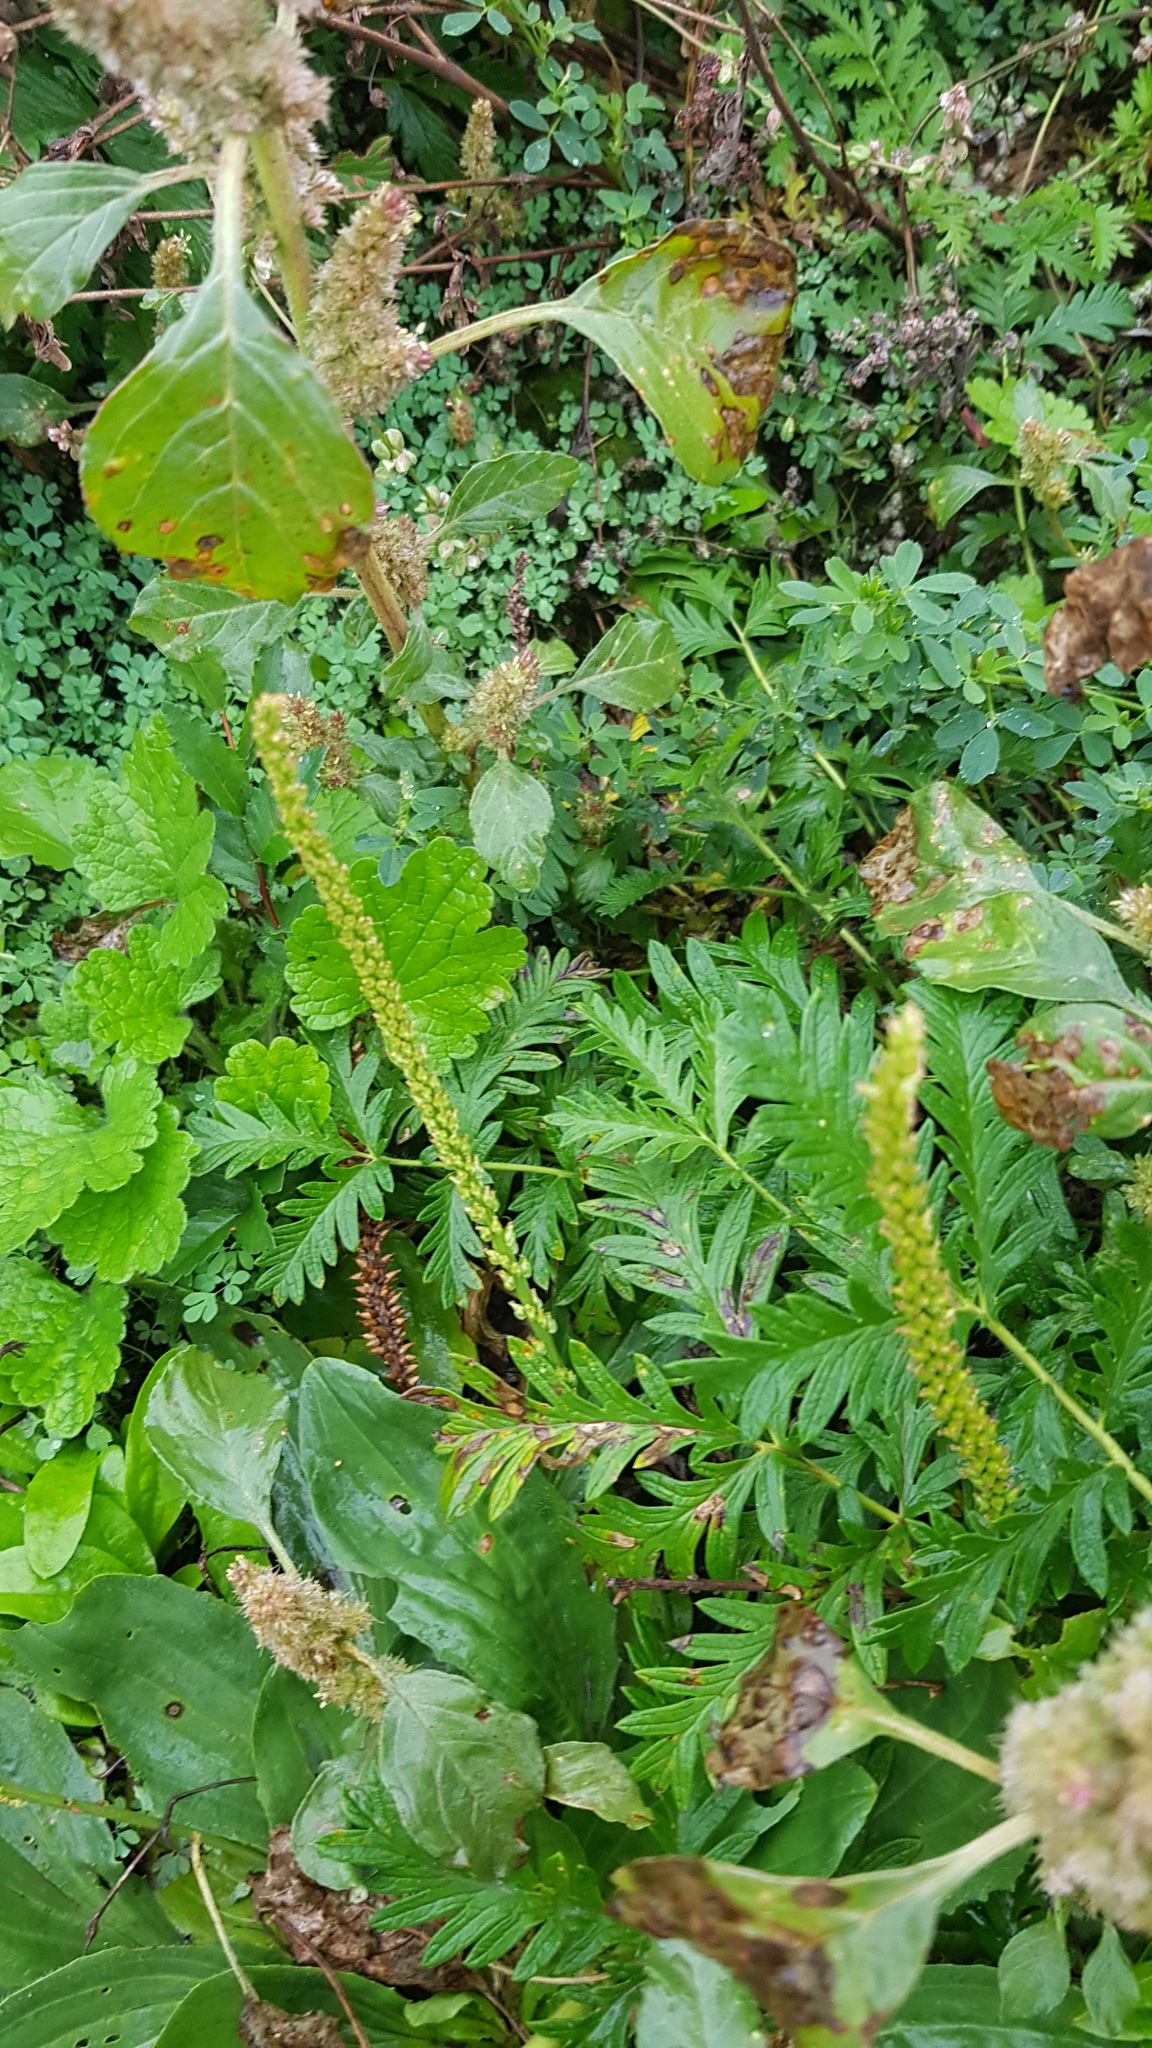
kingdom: Plantae
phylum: Tracheophyta
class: Magnoliopsida
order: Lamiales
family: Plantaginaceae
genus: Plantago
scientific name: Plantago depressa
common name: Depressed plantain
